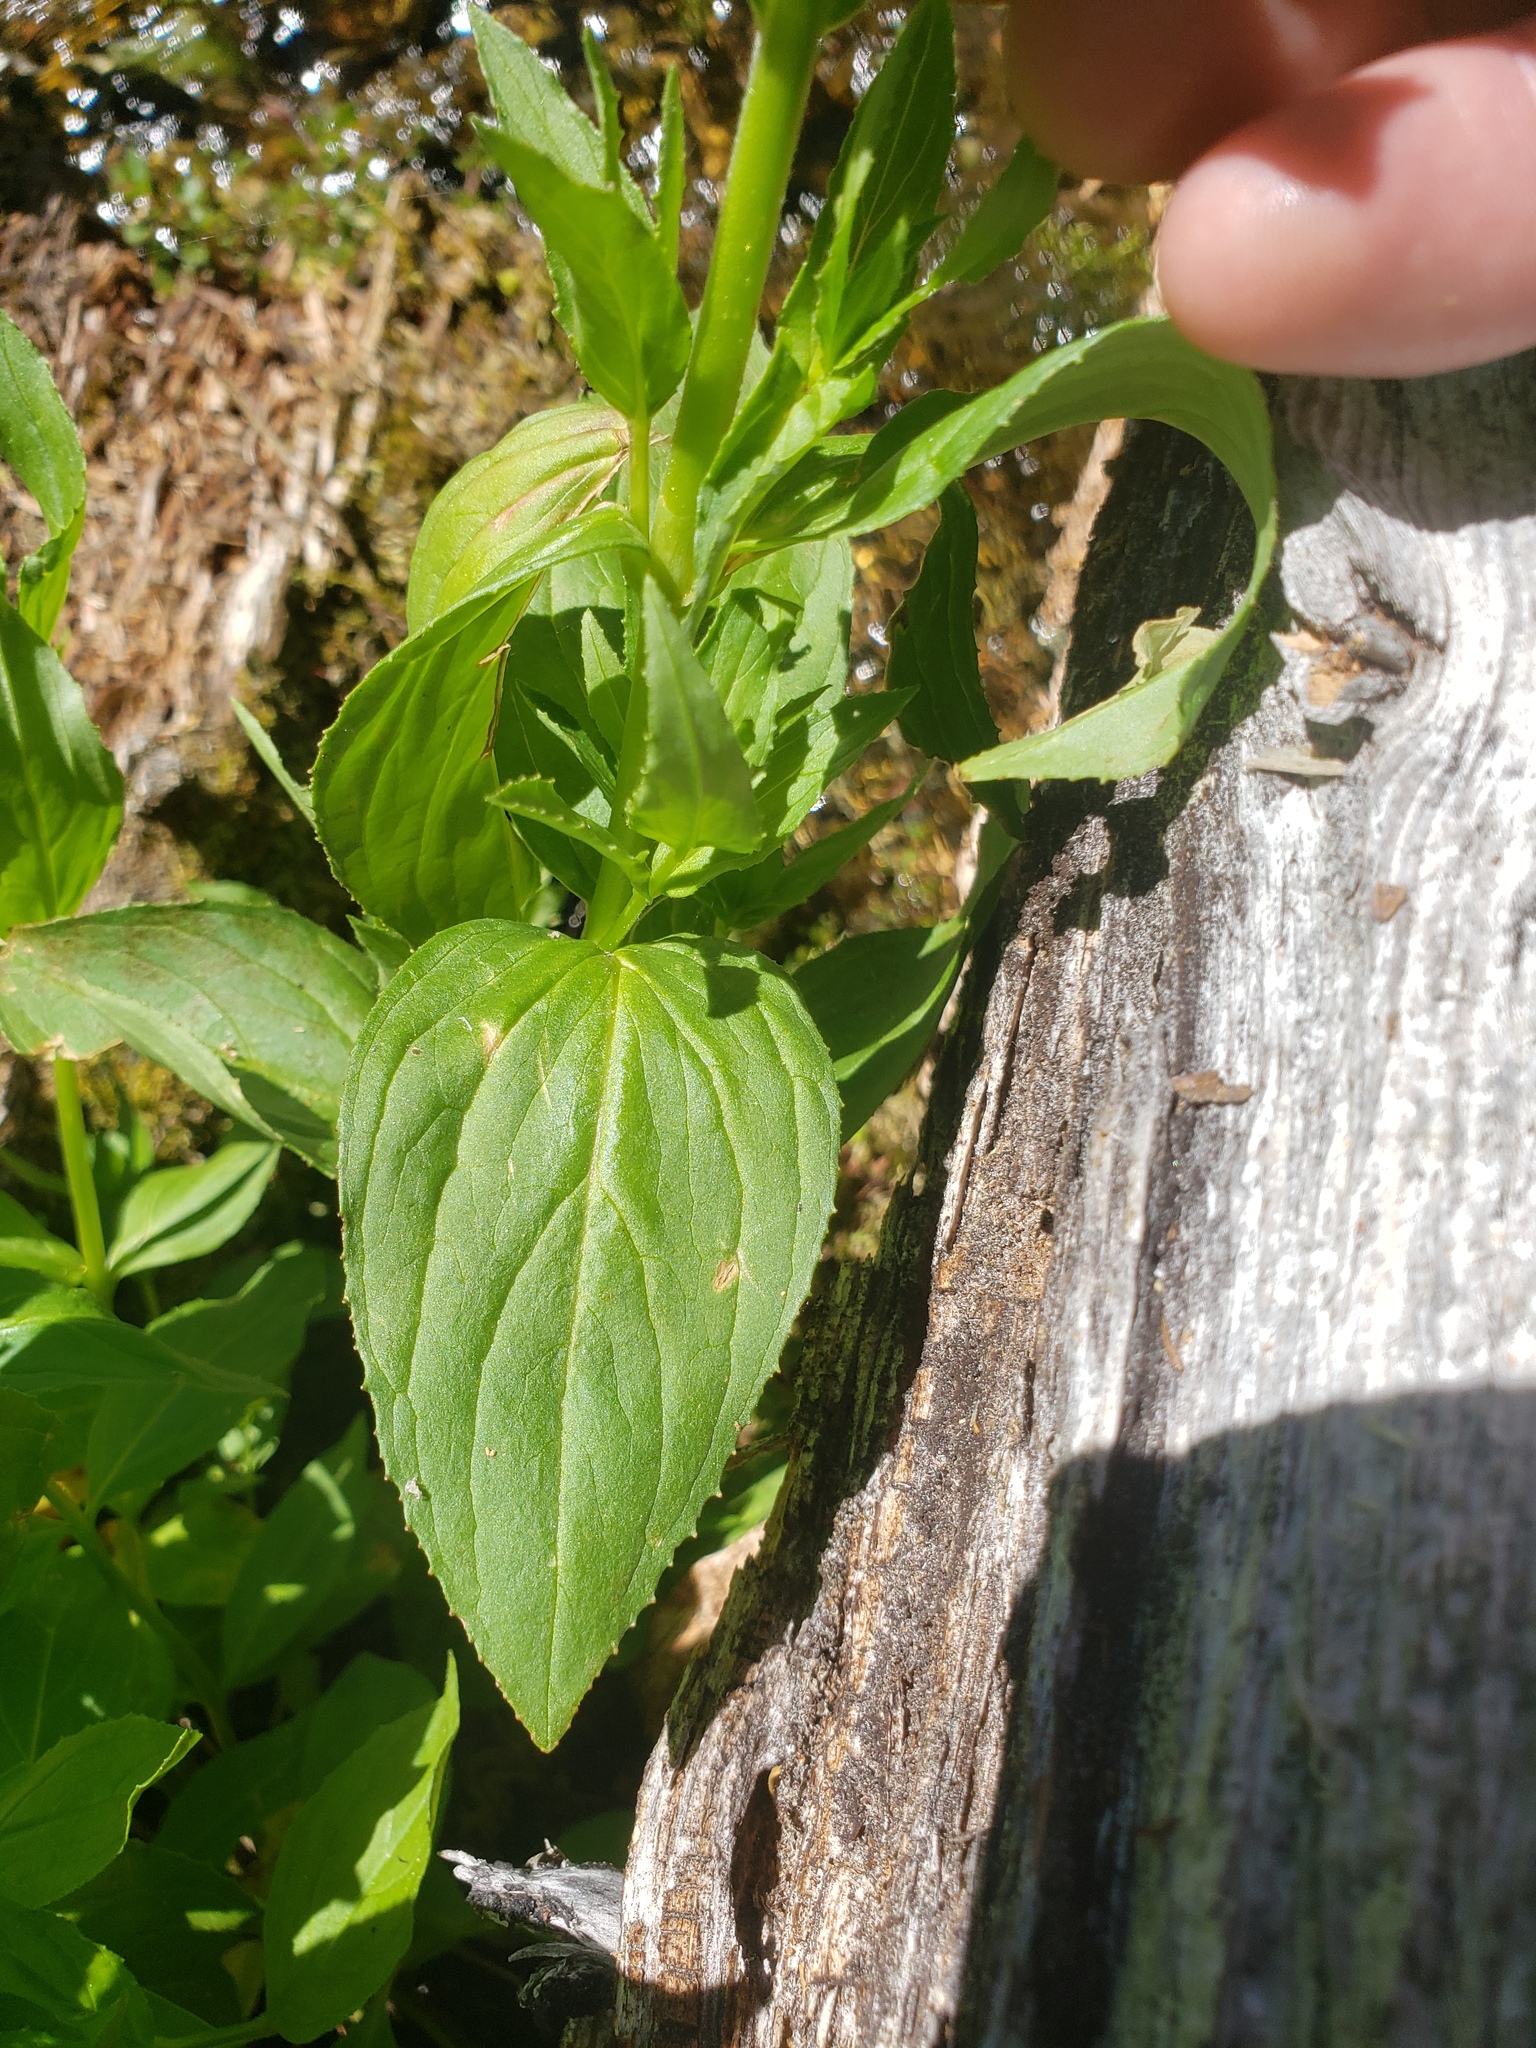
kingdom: Plantae
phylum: Tracheophyta
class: Magnoliopsida
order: Myrtales
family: Onagraceae
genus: Epilobium
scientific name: Epilobium luteum
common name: Yellow willowherb
